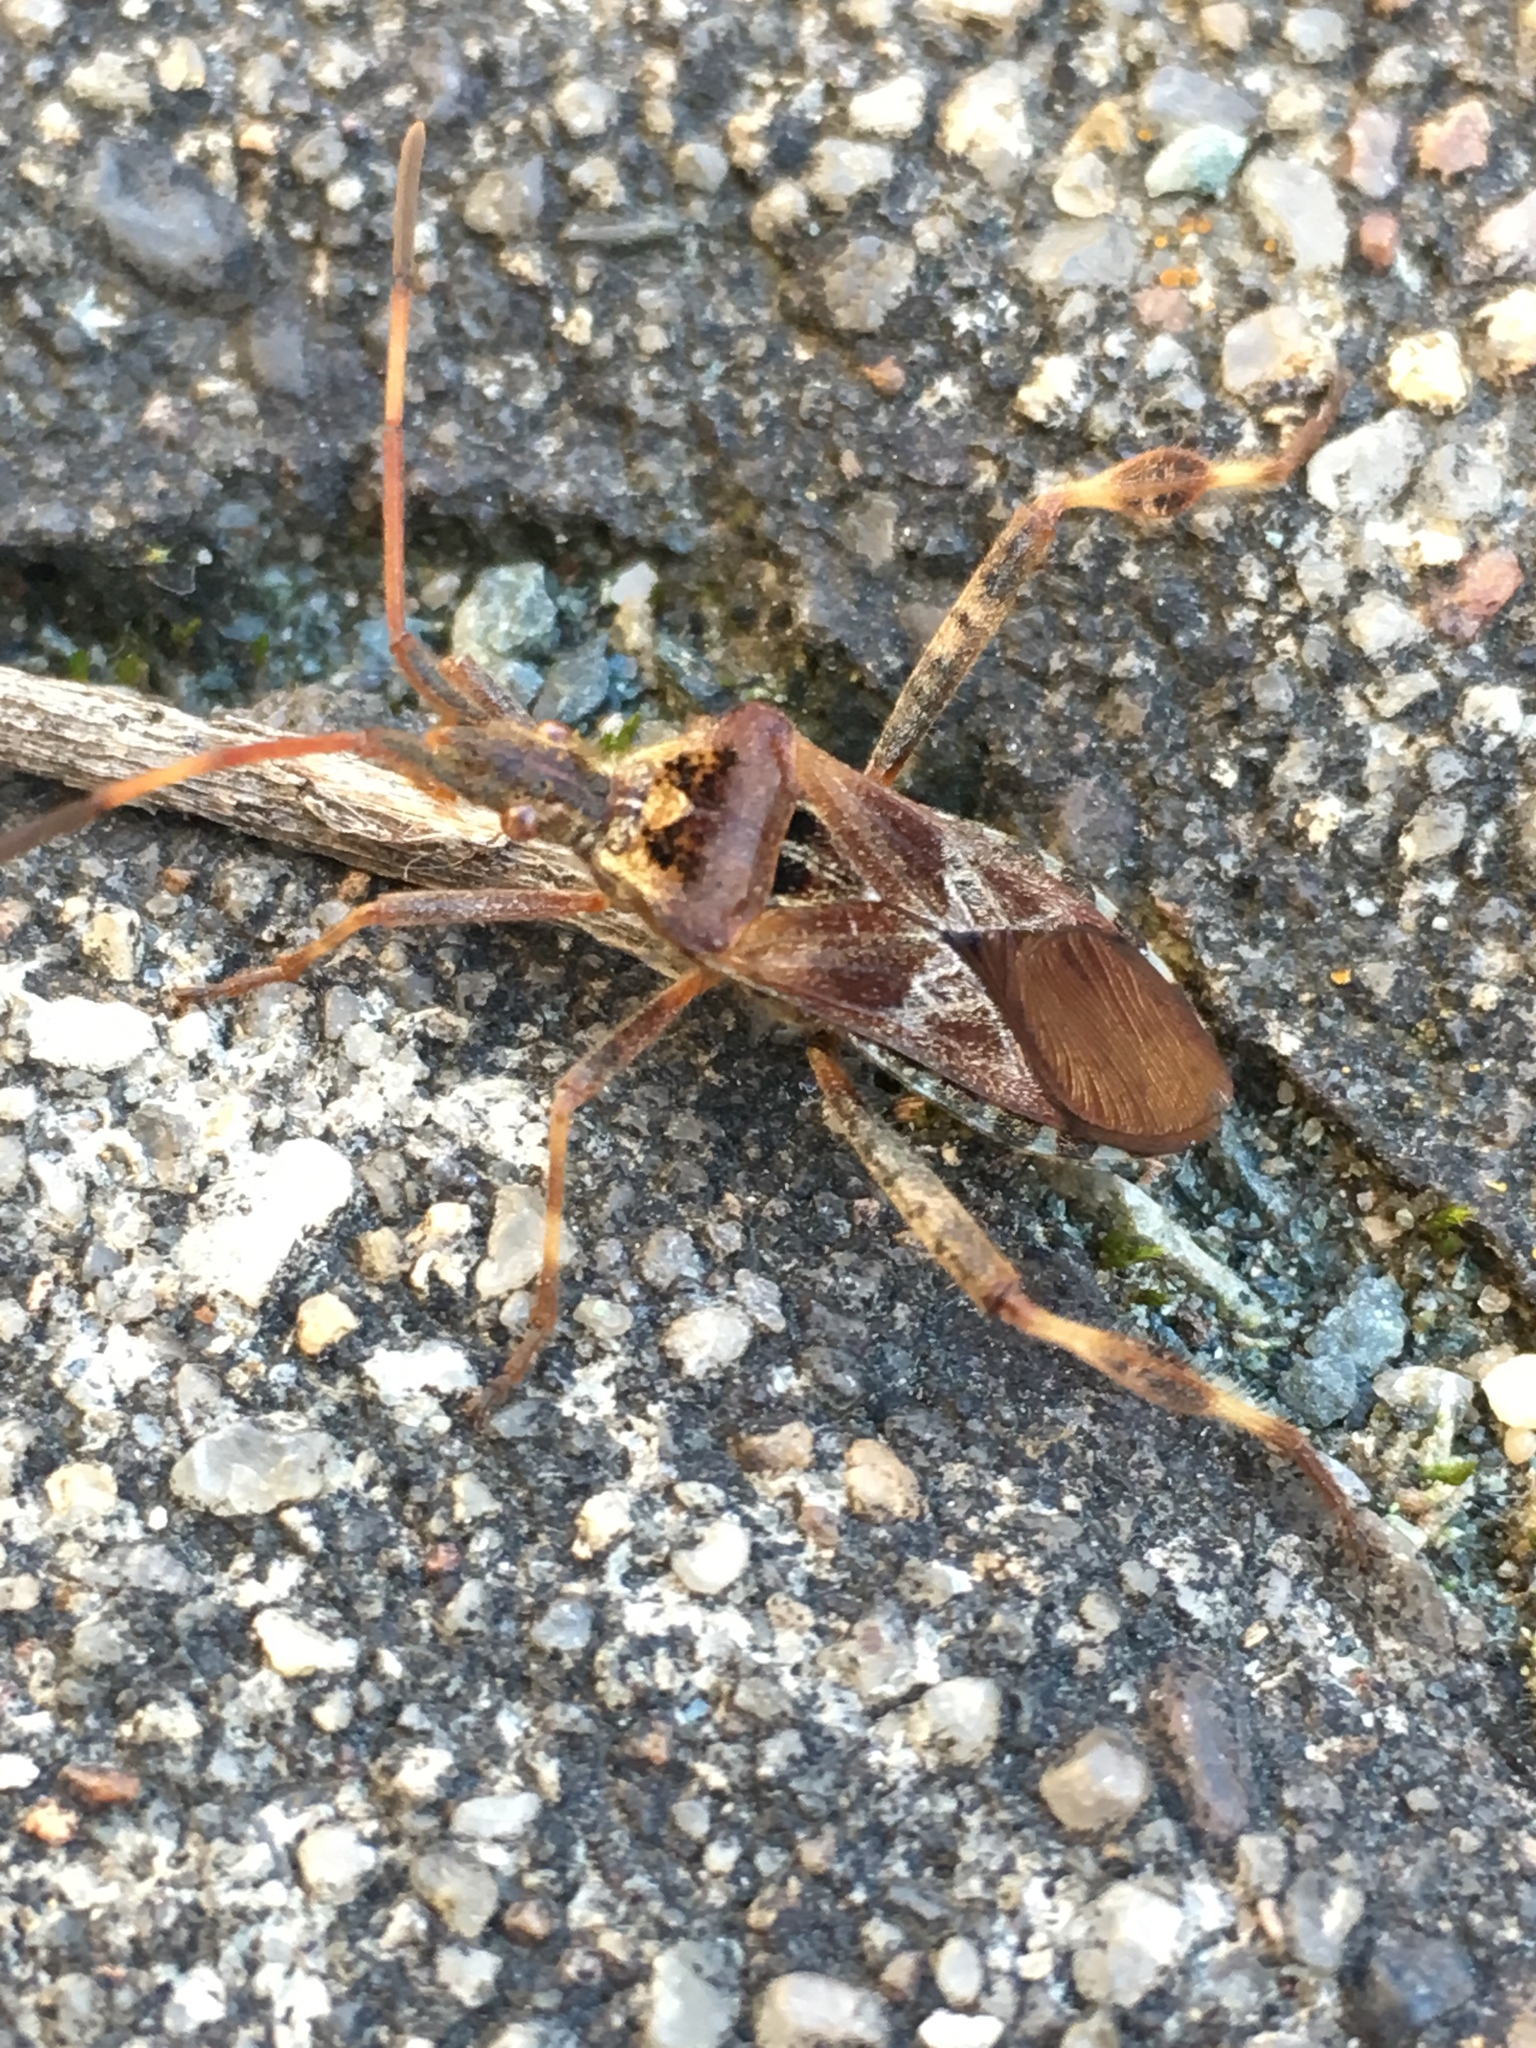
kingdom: Animalia
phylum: Arthropoda
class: Insecta
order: Hemiptera
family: Coreidae
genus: Leptoglossus
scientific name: Leptoglossus occidentalis
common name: Western conifer-seed bug
